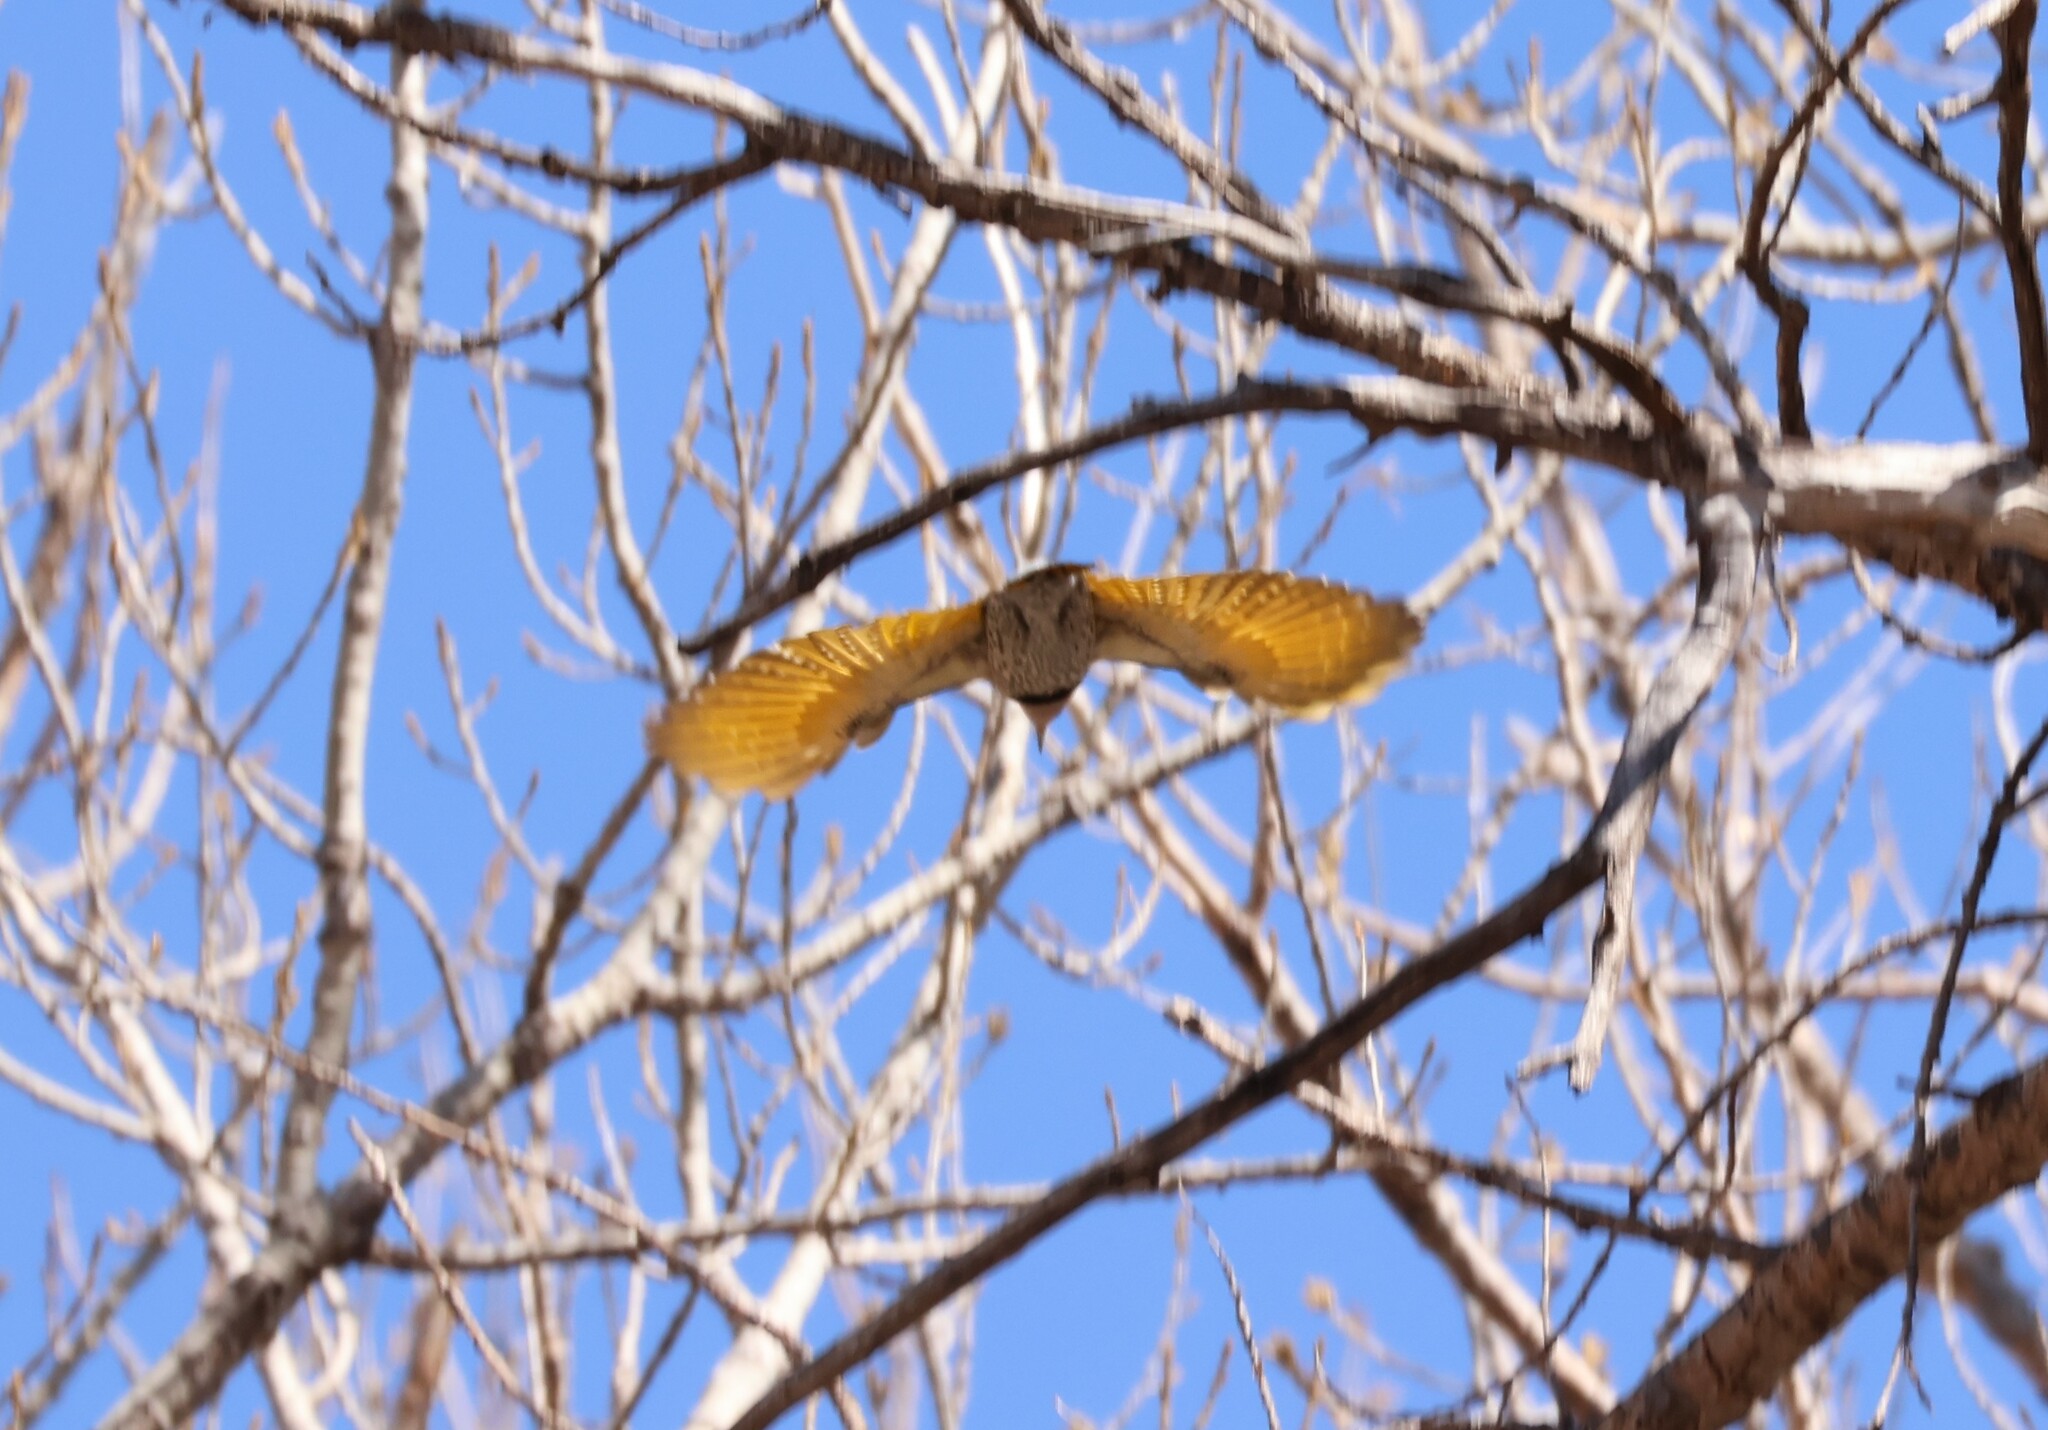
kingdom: Animalia
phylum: Chordata
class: Aves
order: Piciformes
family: Picidae
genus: Colaptes
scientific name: Colaptes auratus
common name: Northern flicker
